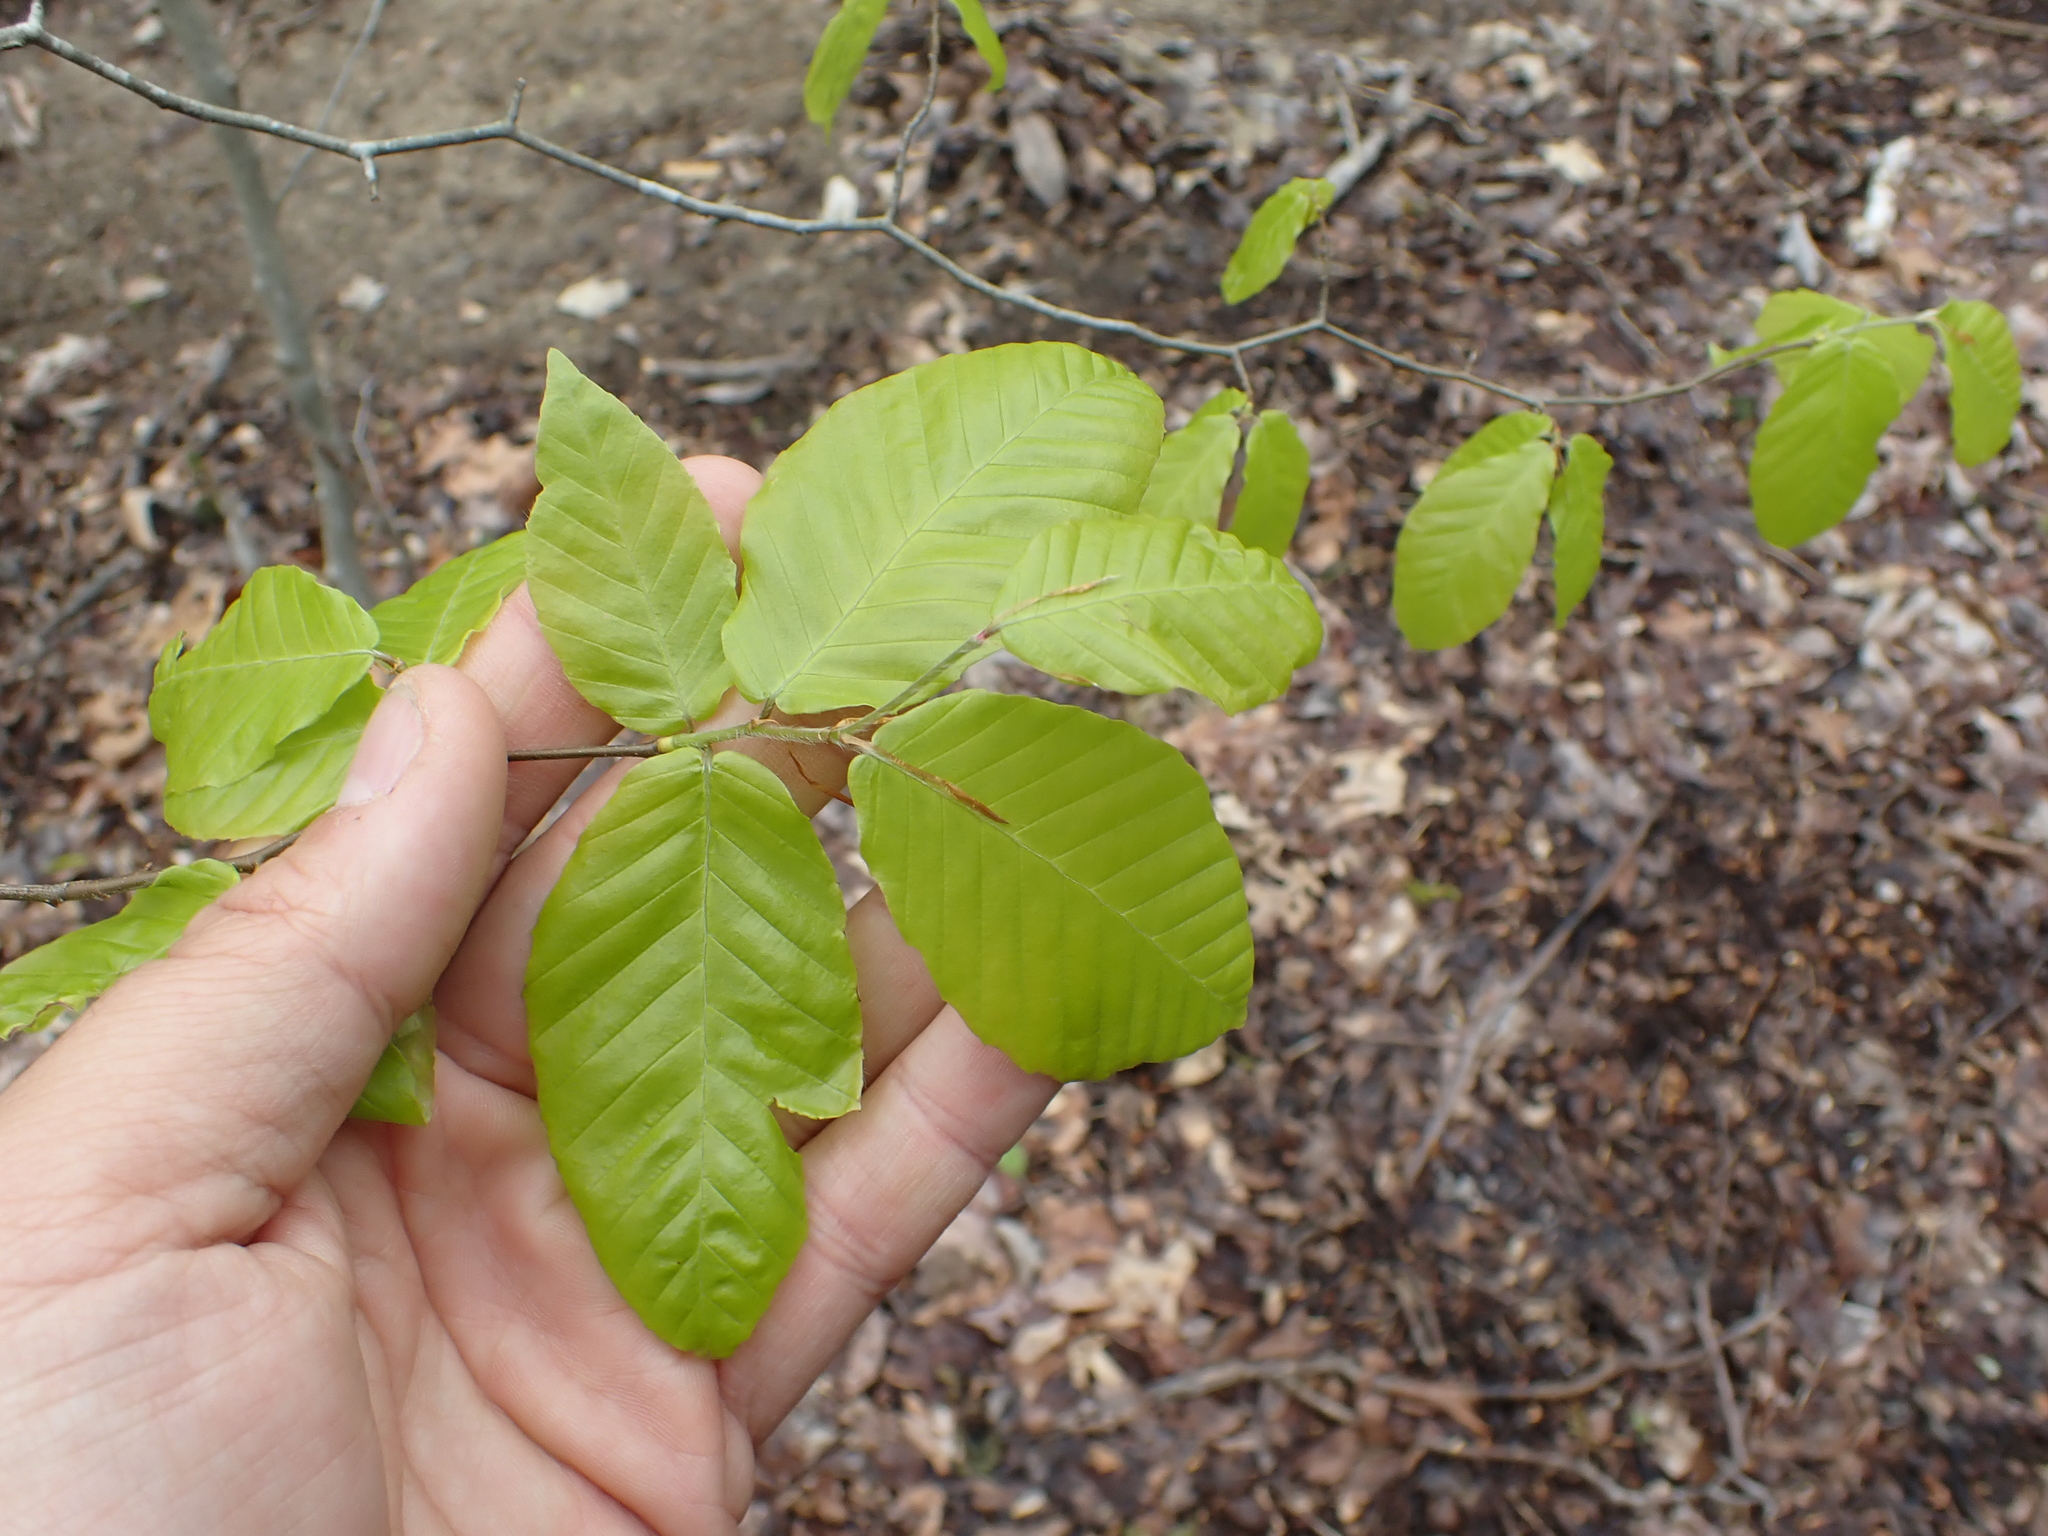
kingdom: Plantae
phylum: Tracheophyta
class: Magnoliopsida
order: Fagales
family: Fagaceae
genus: Fagus
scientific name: Fagus grandifolia
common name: American beech
